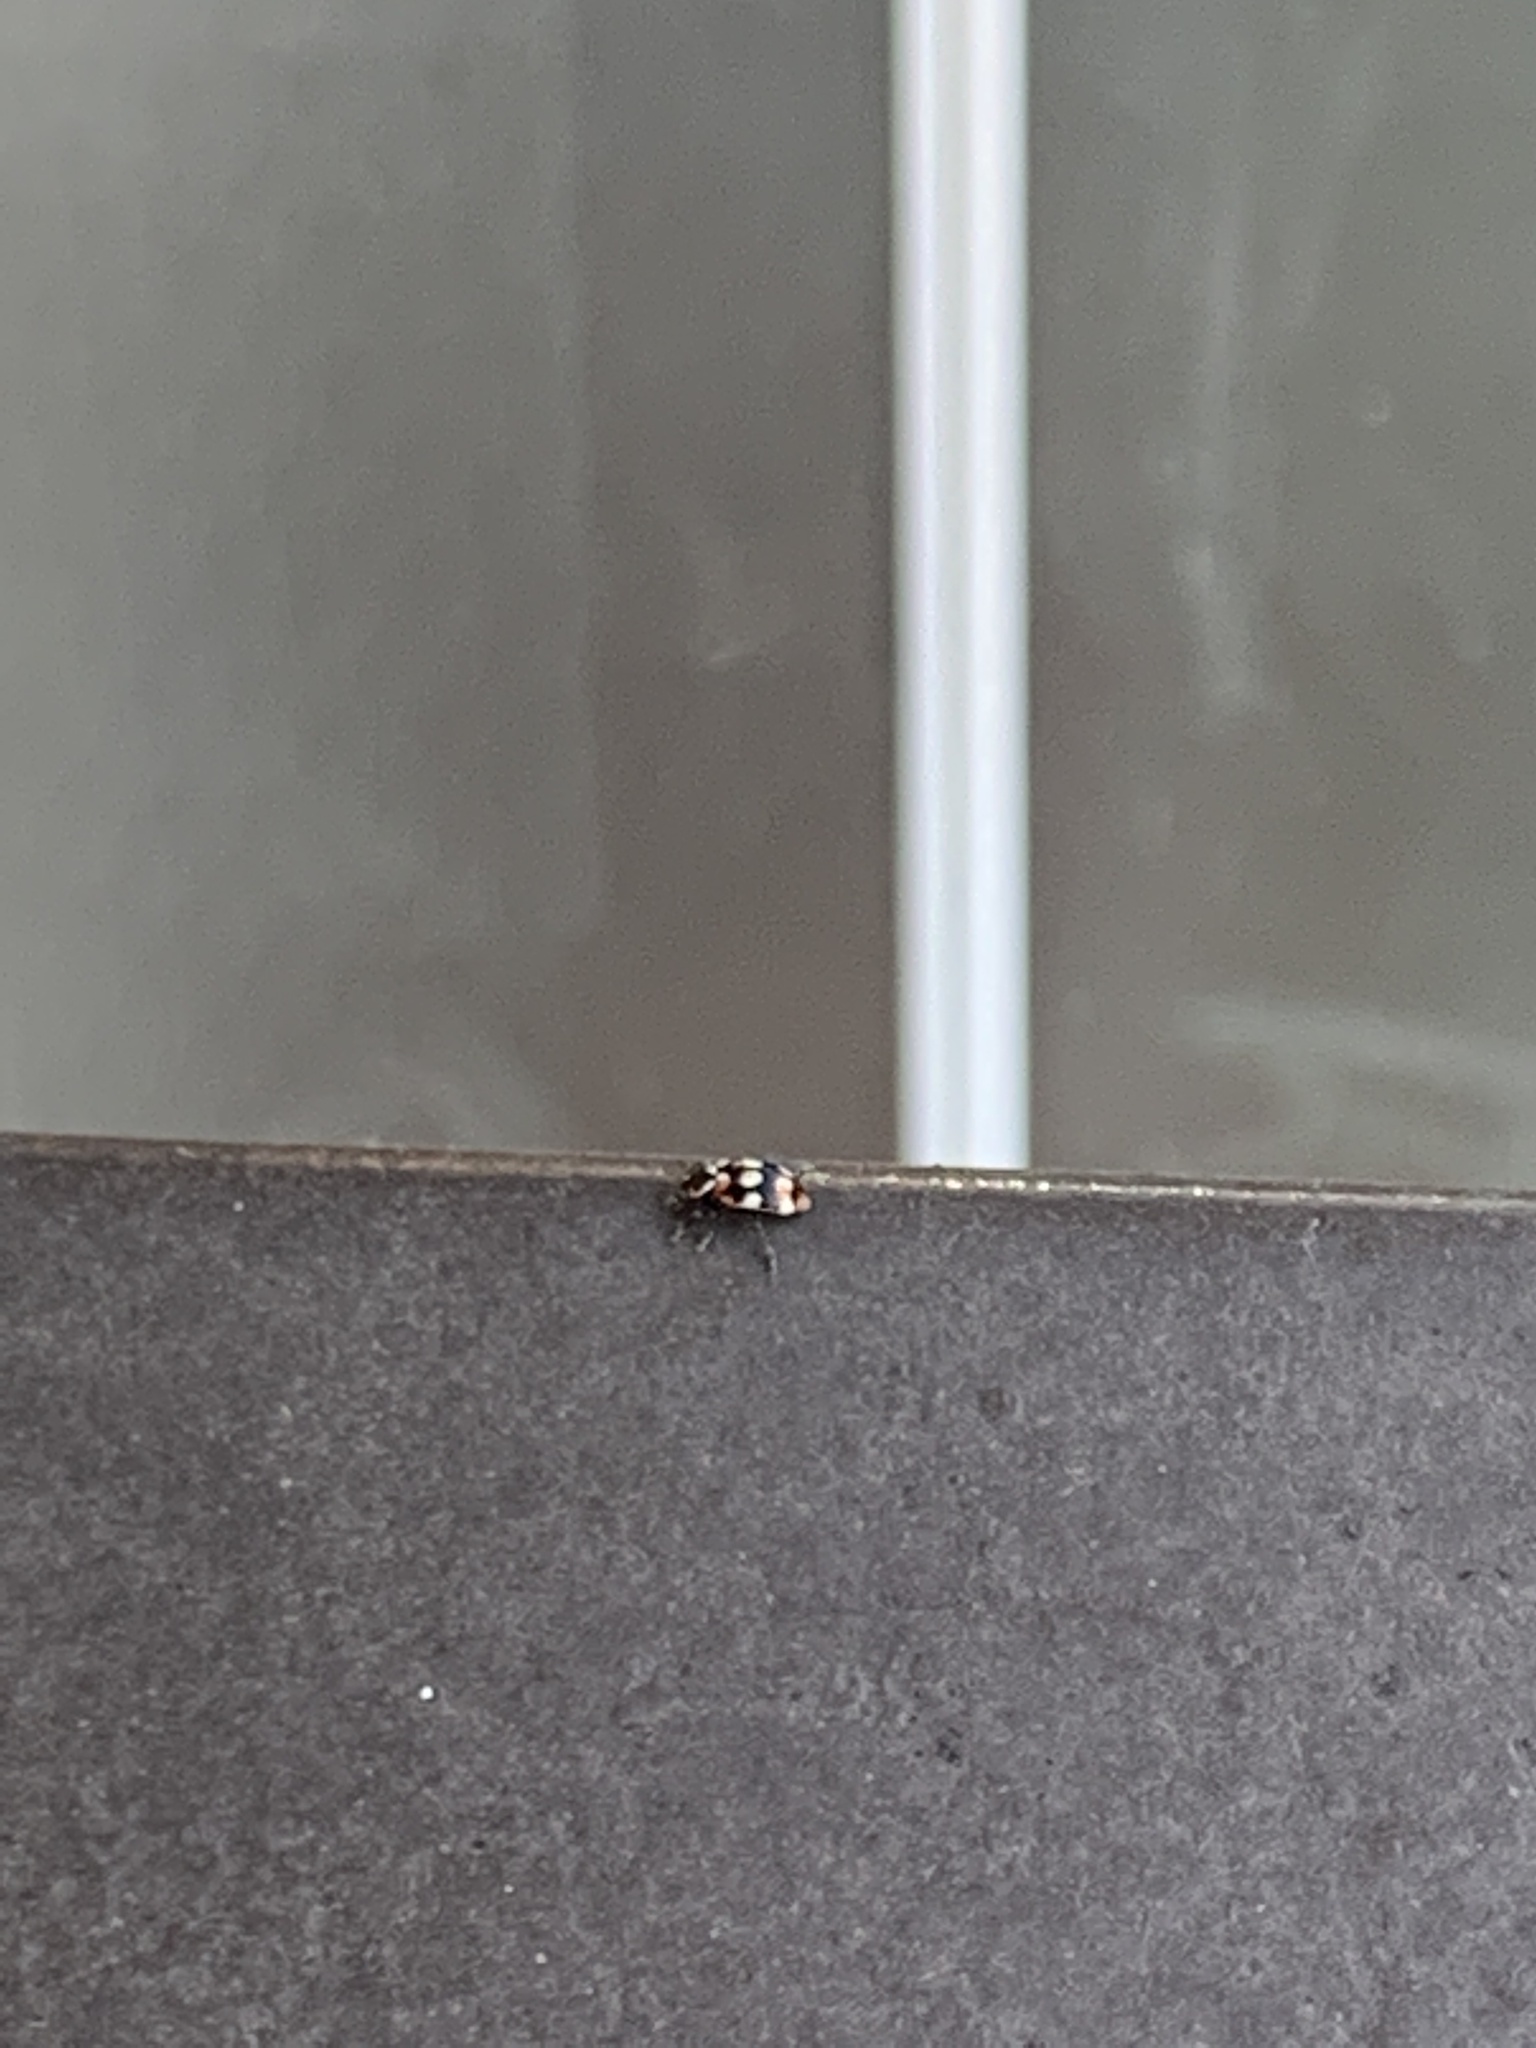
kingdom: Animalia
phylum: Arthropoda
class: Insecta
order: Coleoptera
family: Coccinellidae
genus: Eriopis
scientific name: Eriopis connexa
